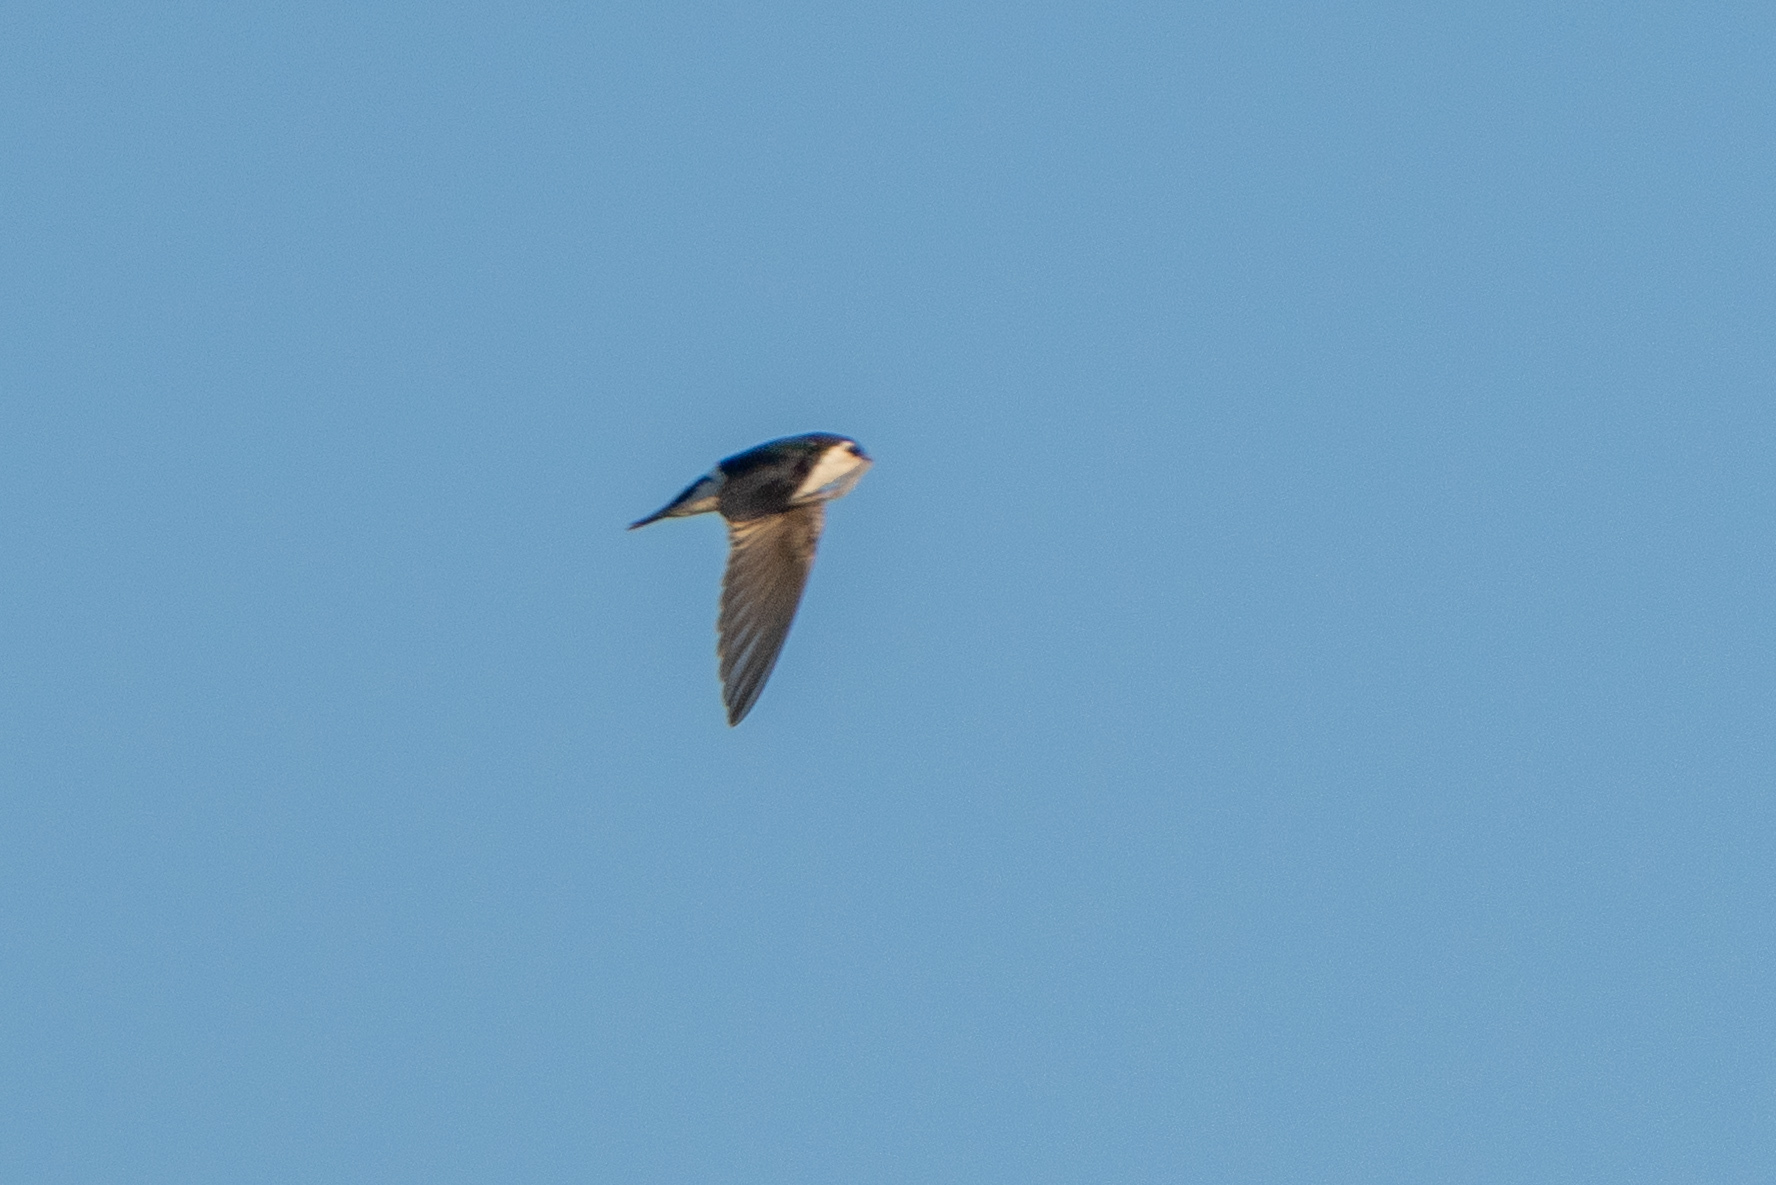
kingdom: Animalia
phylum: Chordata
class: Aves
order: Passeriformes
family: Hirundinidae
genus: Tachycineta
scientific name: Tachycineta thalassina
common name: Violet-green swallow
